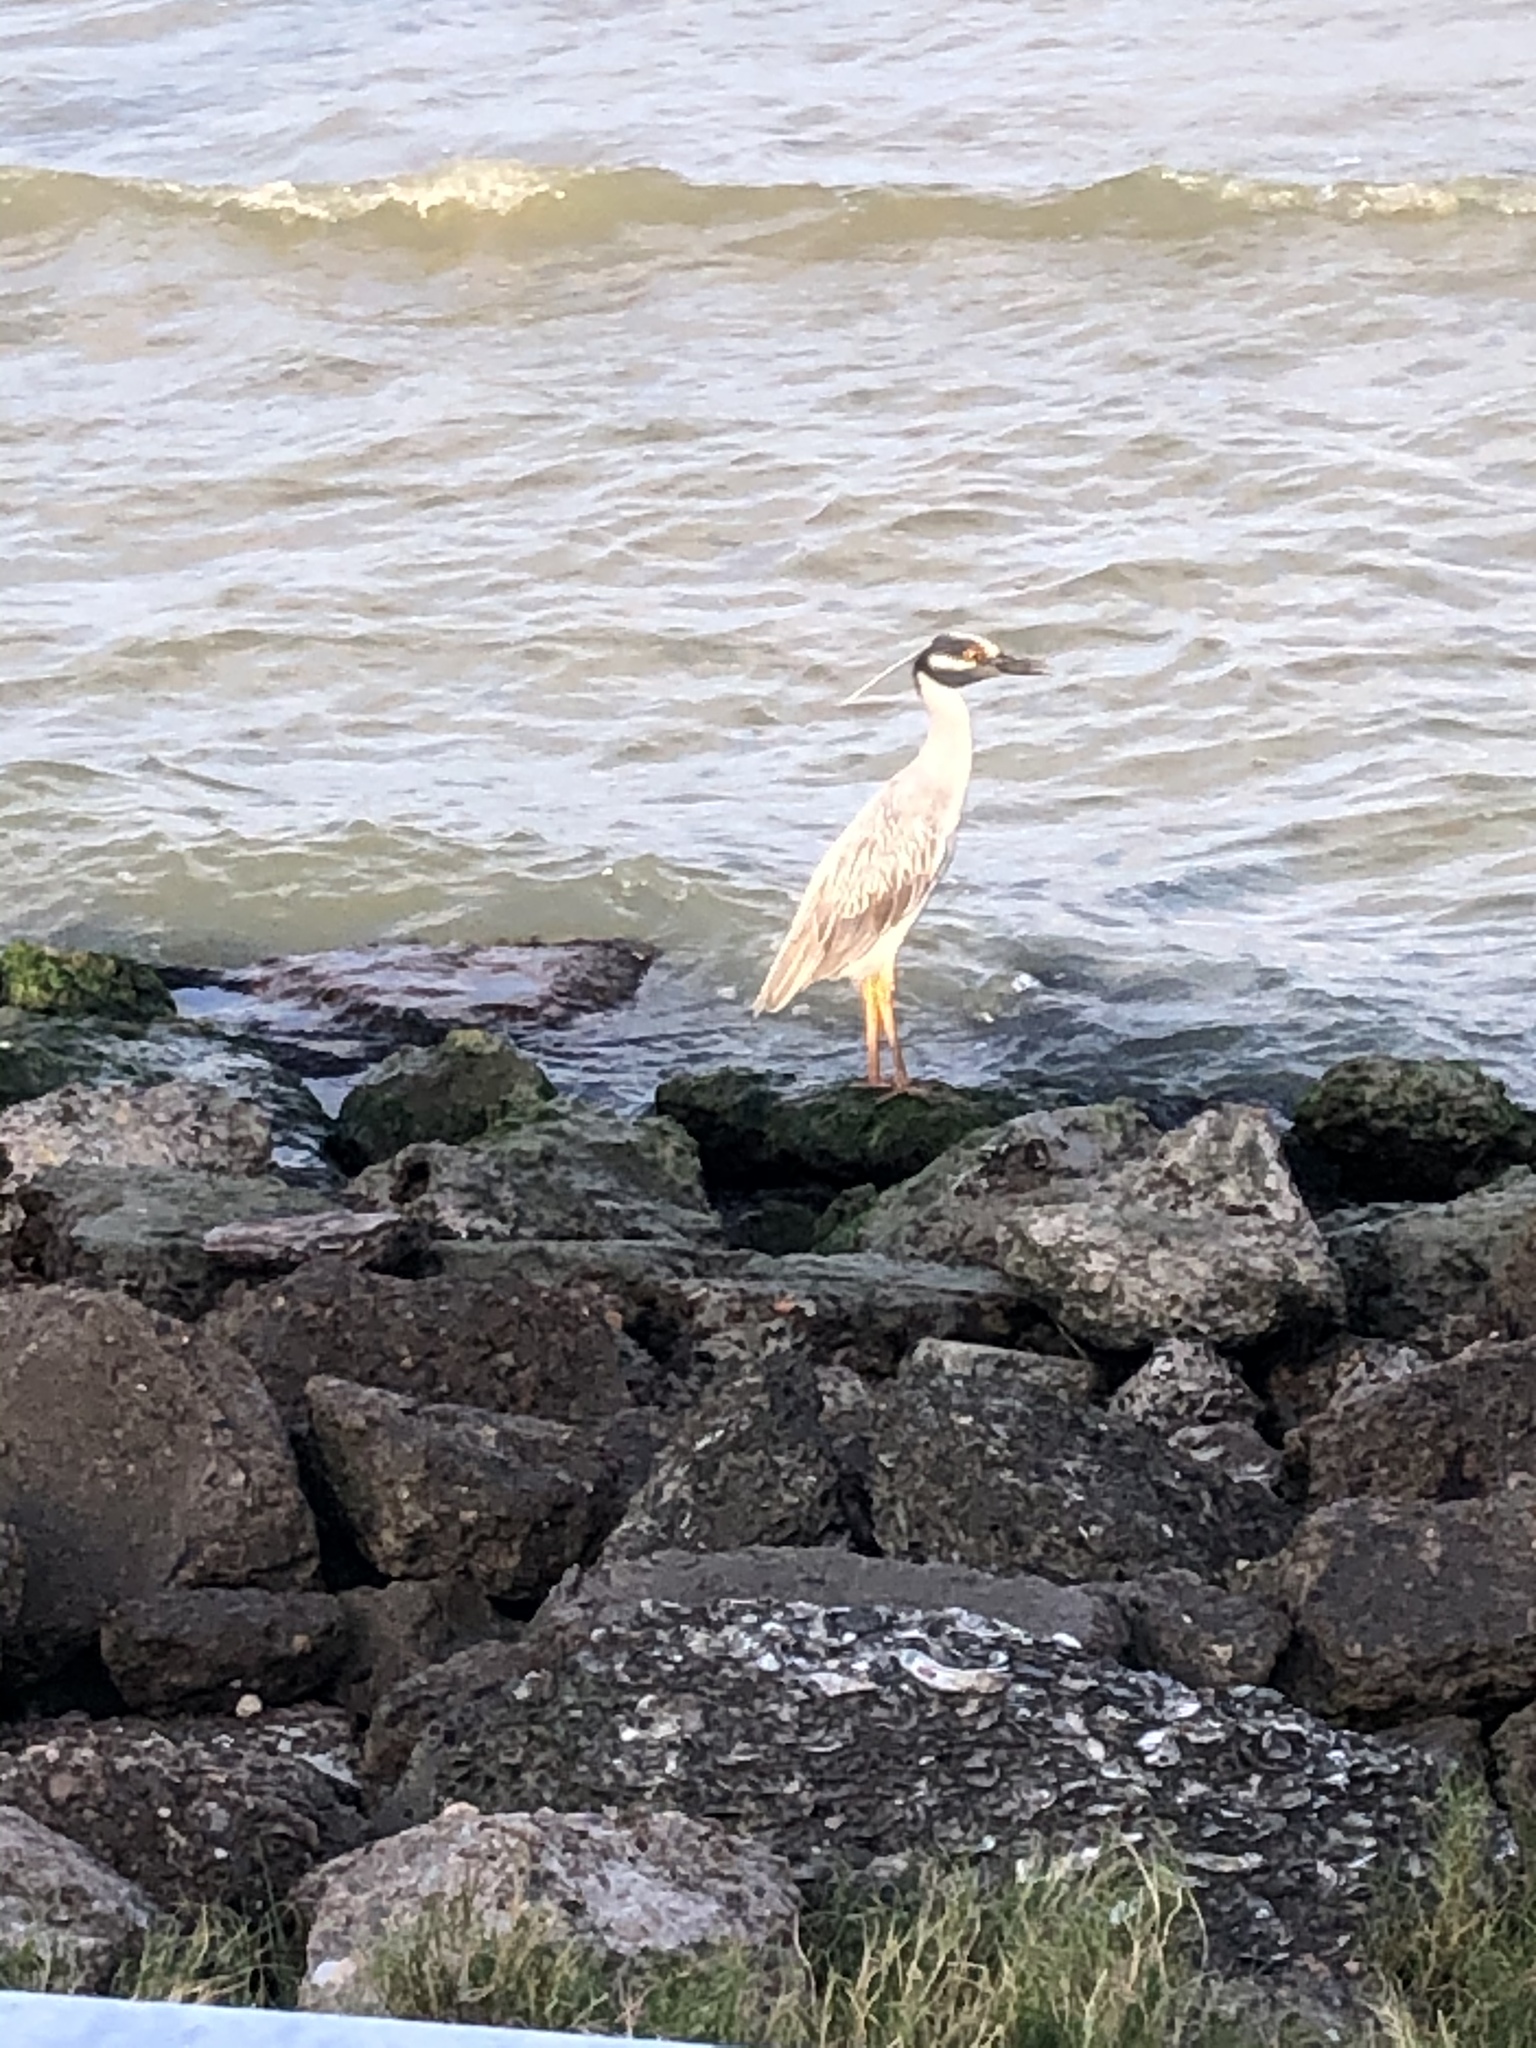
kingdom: Animalia
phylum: Chordata
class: Aves
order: Pelecaniformes
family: Ardeidae
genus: Nyctanassa
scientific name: Nyctanassa violacea
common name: Yellow-crowned night heron
